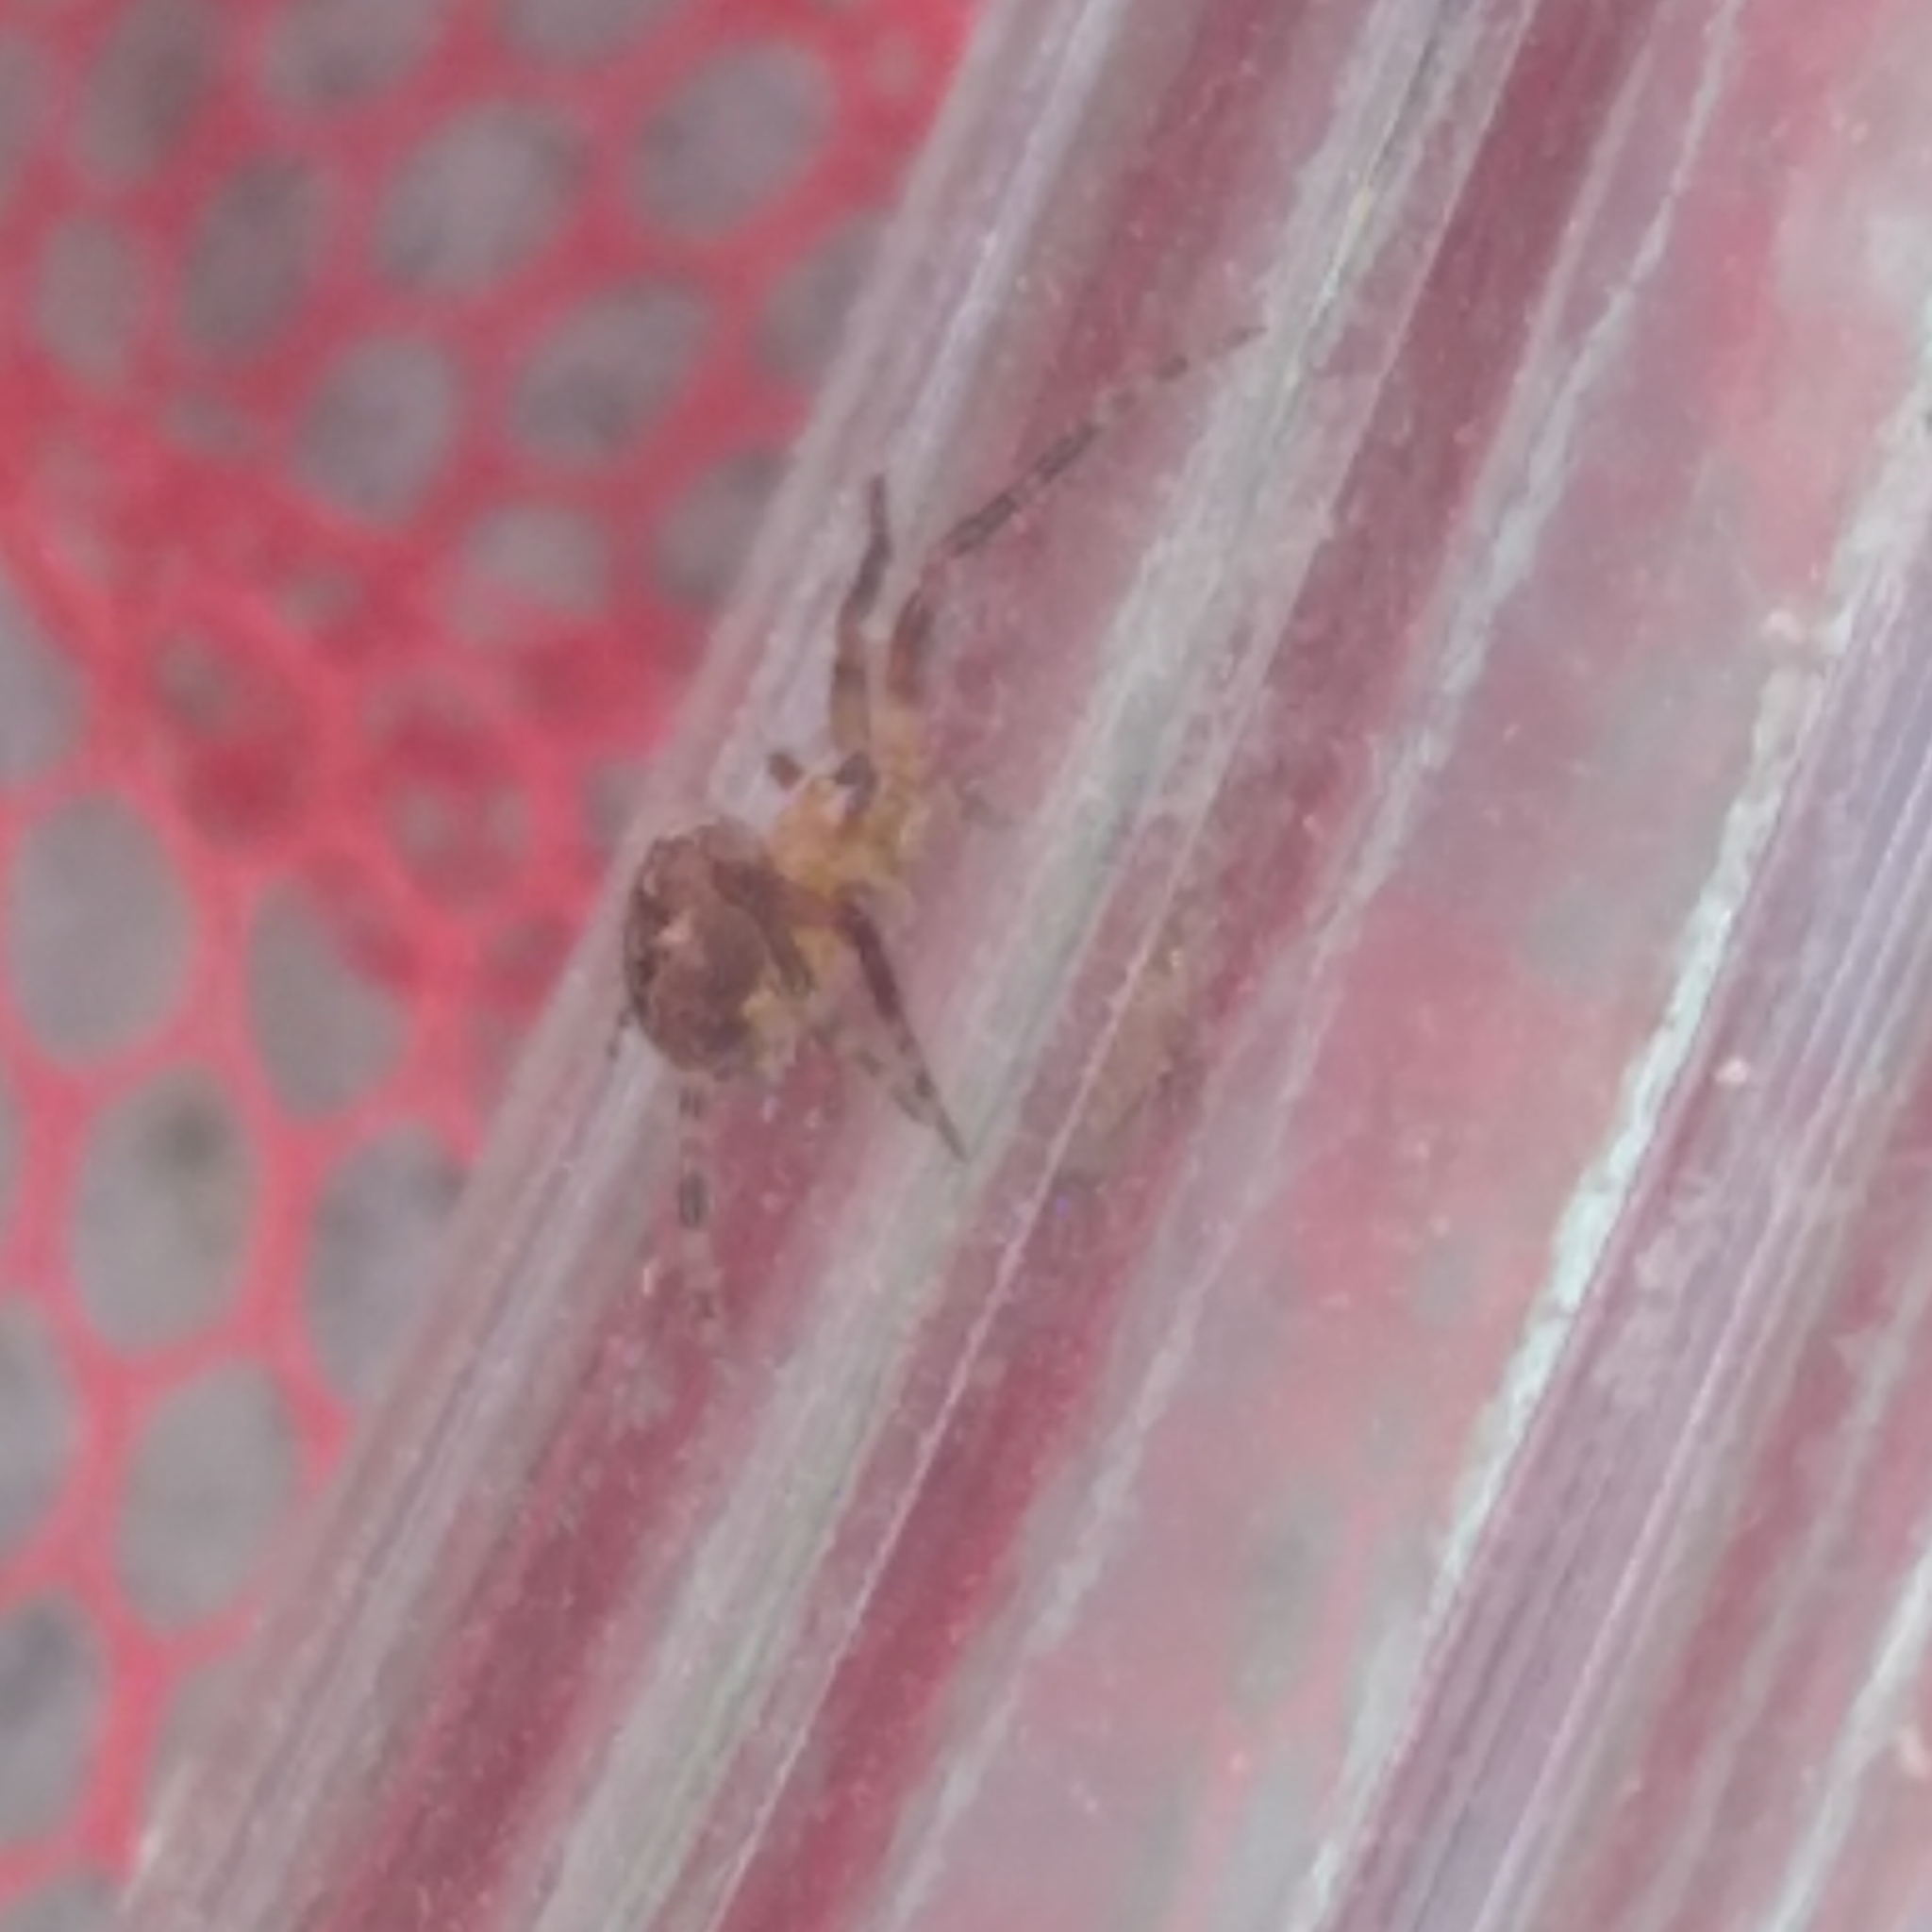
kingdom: Animalia
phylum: Arthropoda
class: Arachnida
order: Araneae
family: Araneidae
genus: Araneus
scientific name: Araneus diadematus
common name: Cross orbweaver
